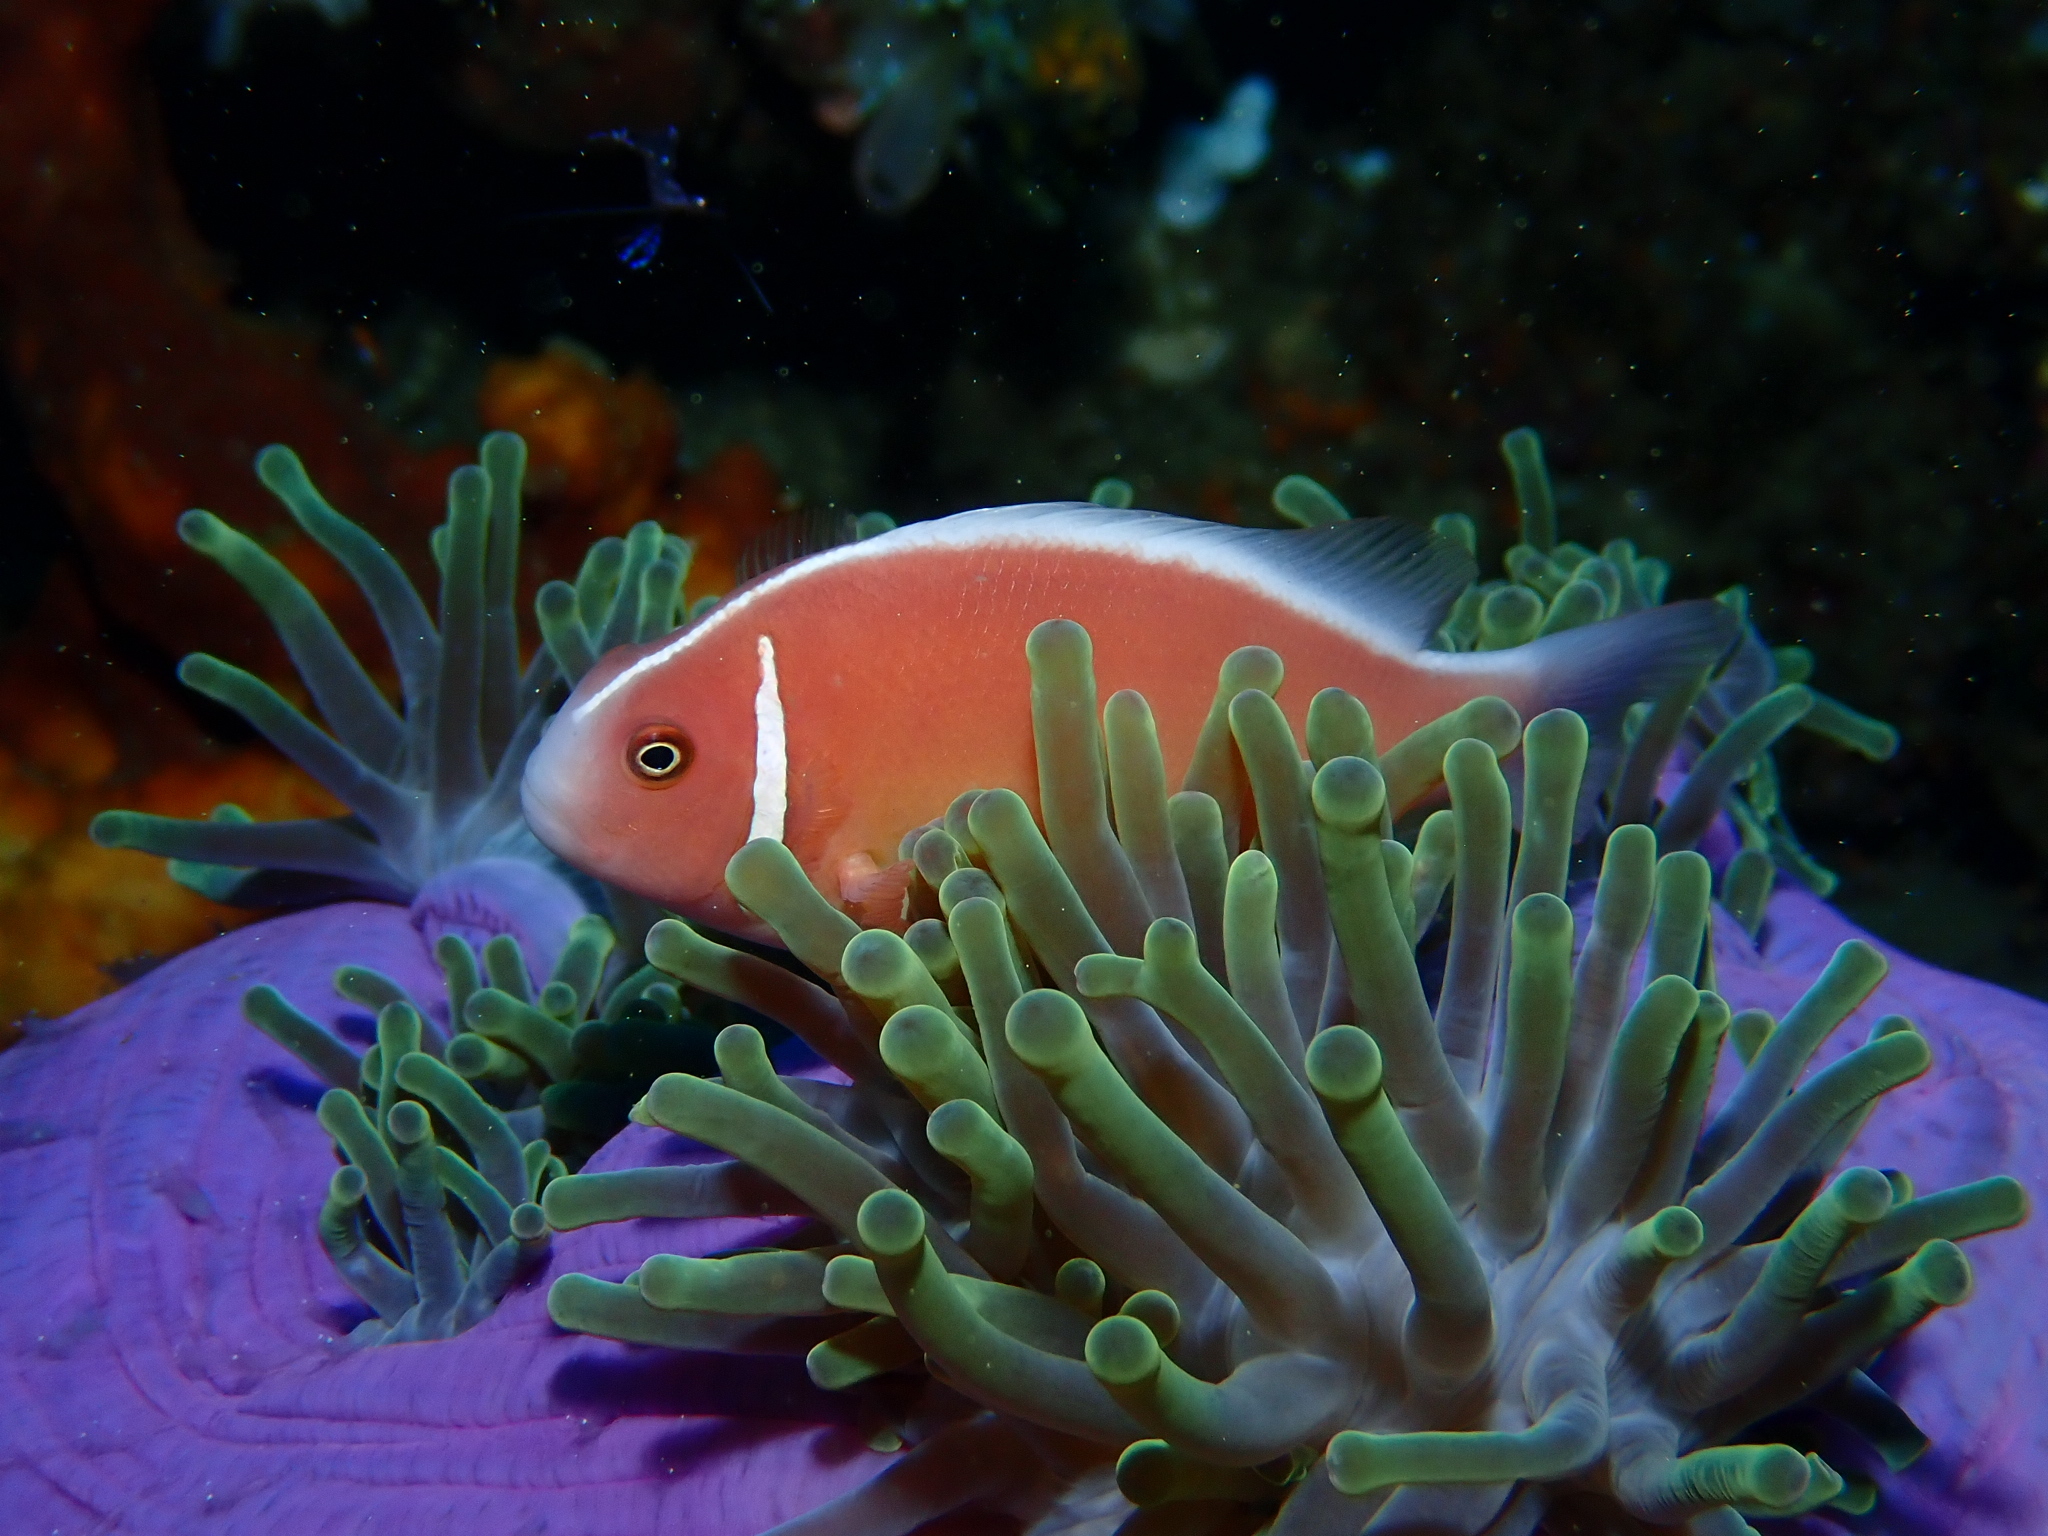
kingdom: Animalia
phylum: Chordata
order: Perciformes
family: Pomacentridae
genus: Amphiprion
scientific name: Amphiprion perideraion
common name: Pink anemonefish
